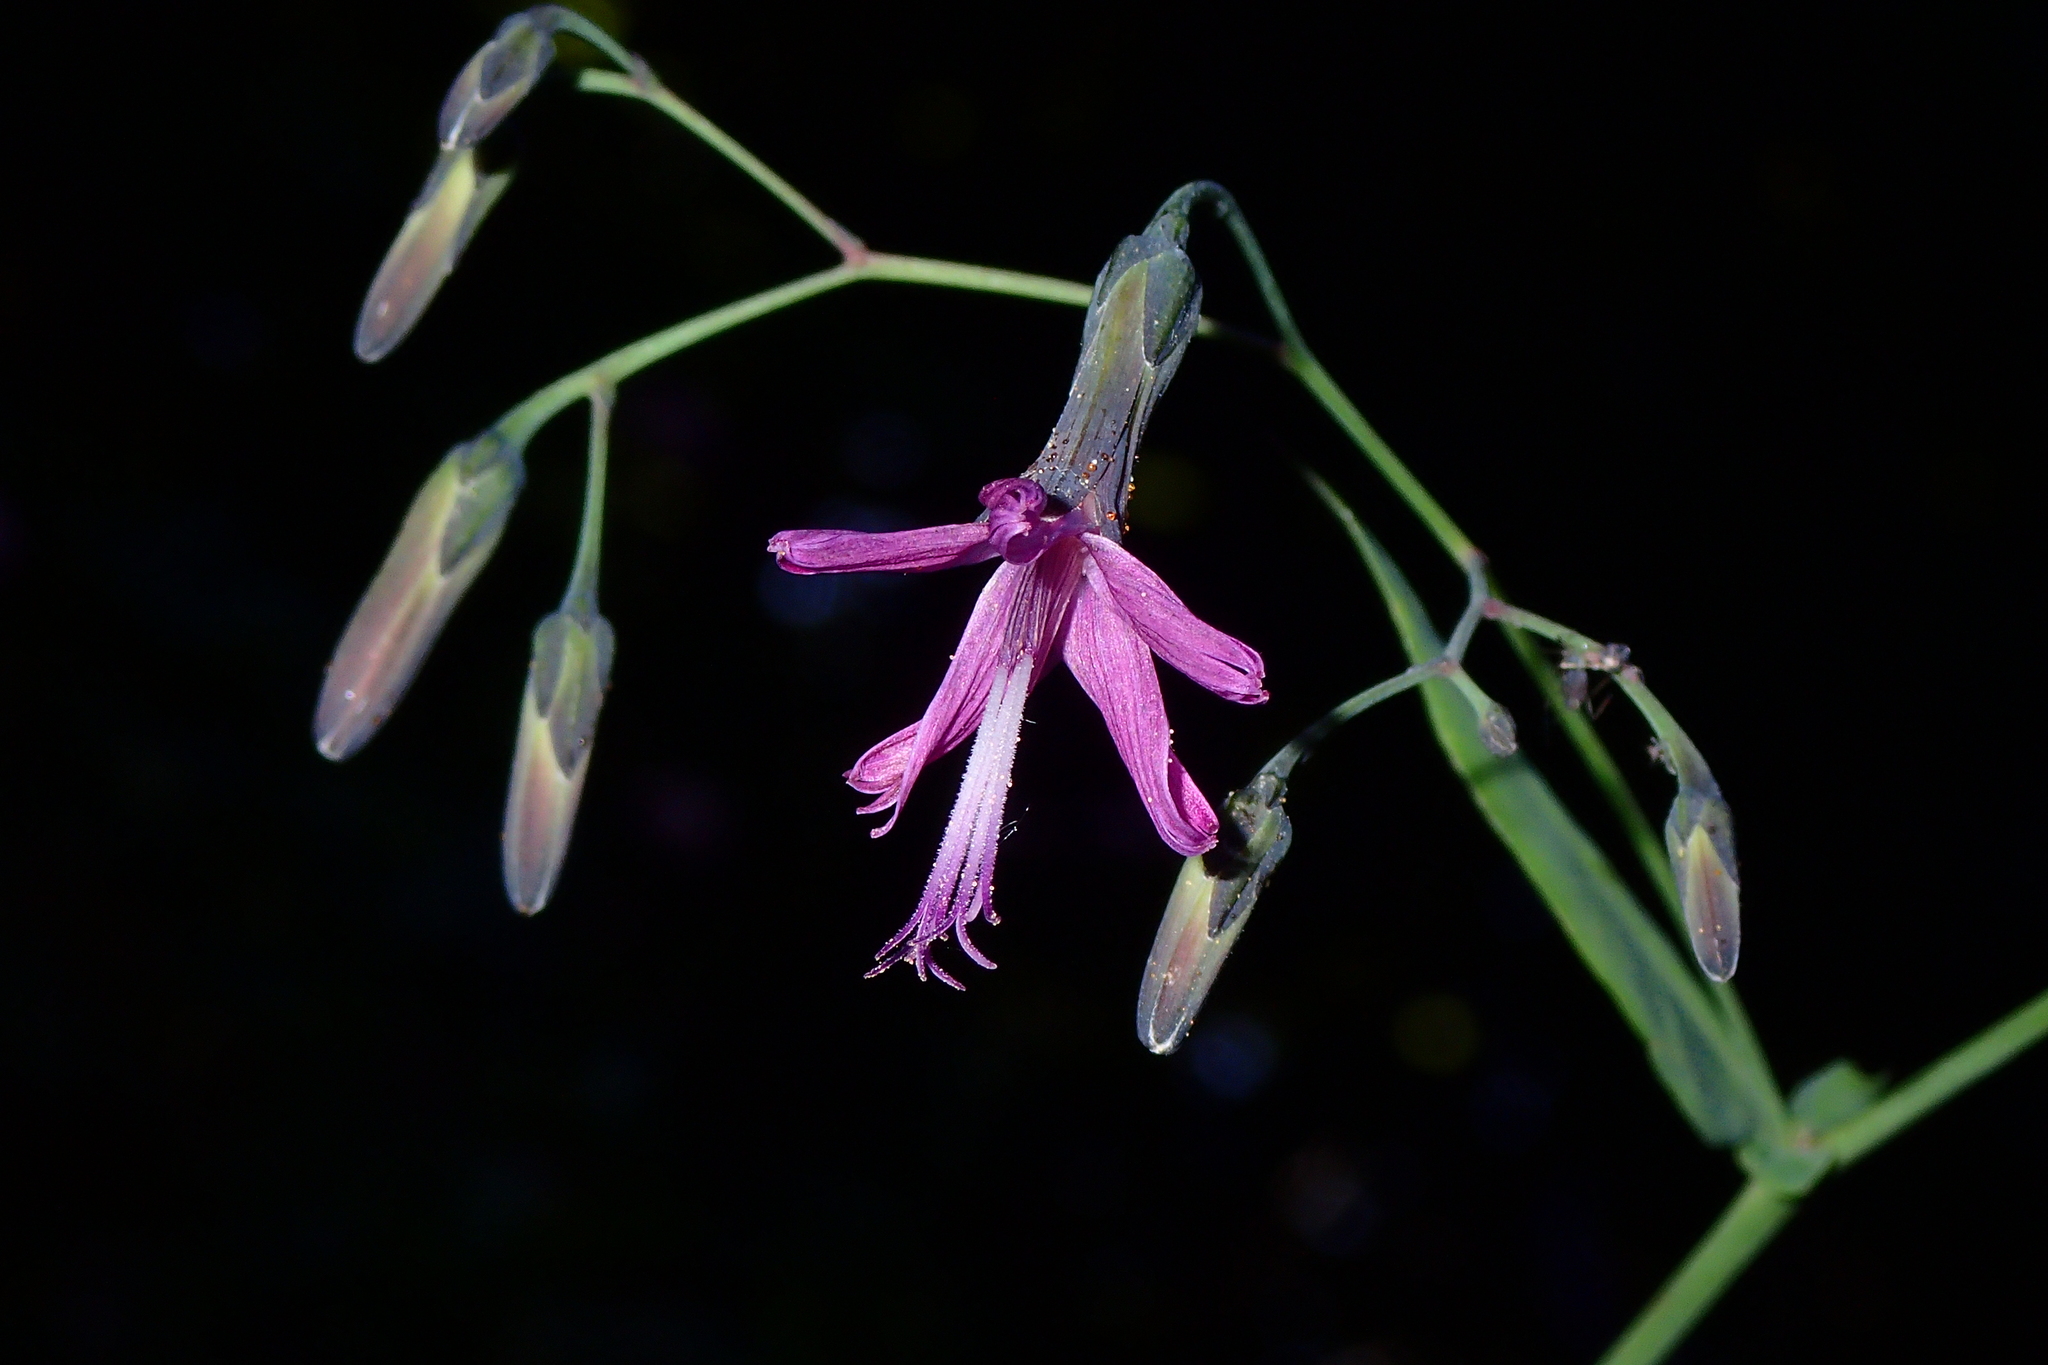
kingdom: Plantae
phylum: Tracheophyta
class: Magnoliopsida
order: Asterales
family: Asteraceae
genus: Prenanthes
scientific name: Prenanthes purpurea
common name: Purple lettuce
